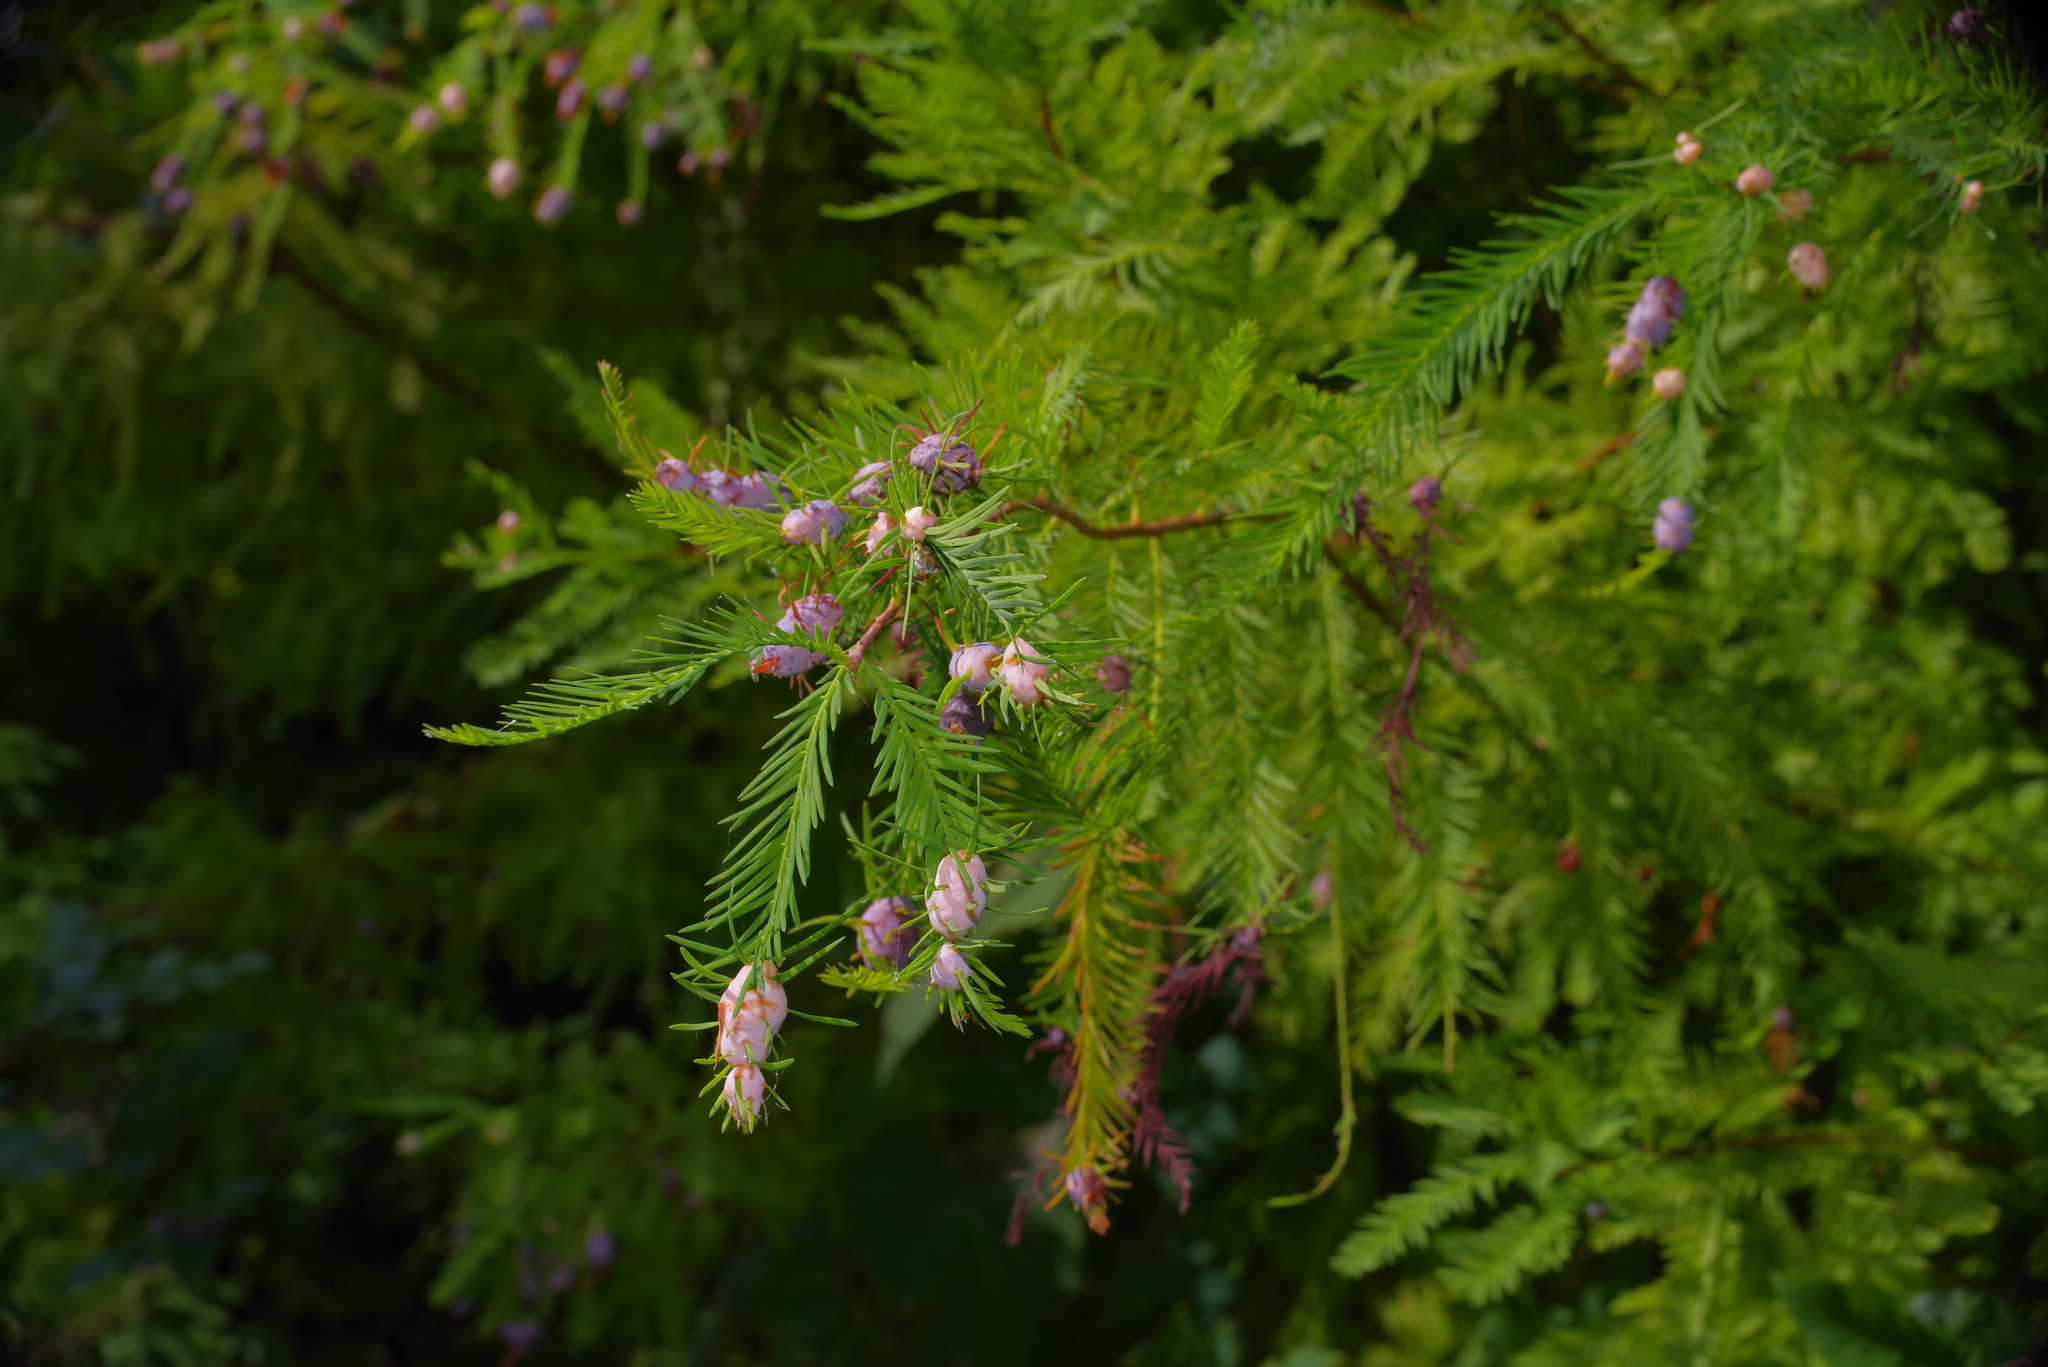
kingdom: Animalia
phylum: Arthropoda
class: Insecta
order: Diptera
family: Cecidomyiidae
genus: Taxodiomyia
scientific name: Taxodiomyia cupressiananassa
